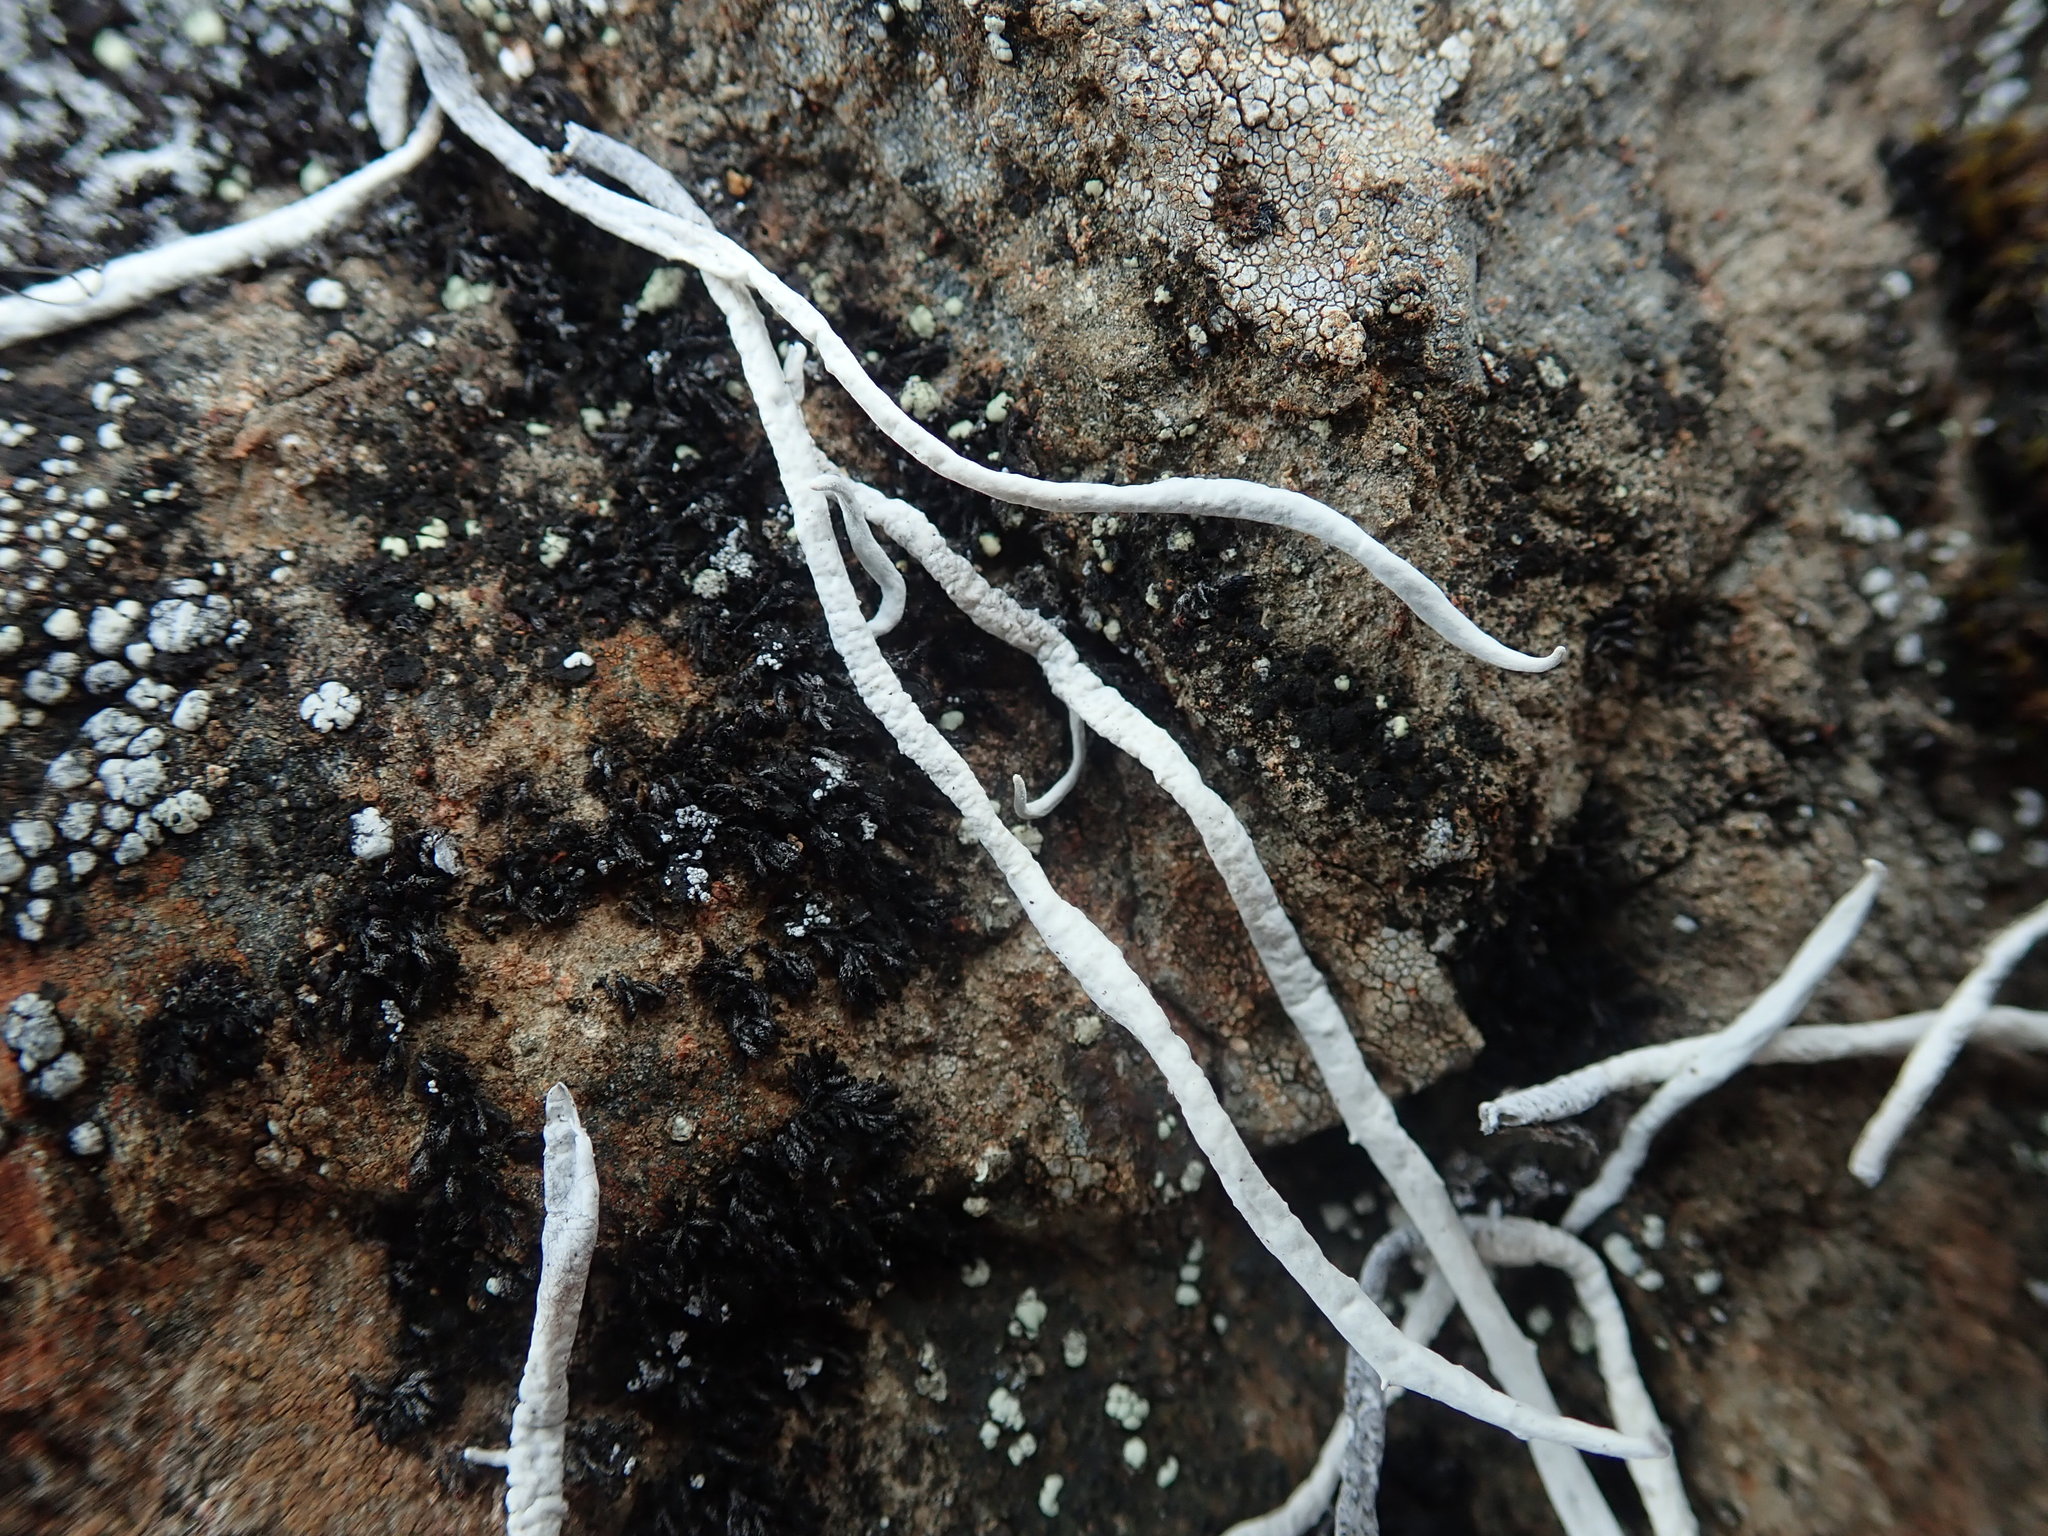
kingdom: Fungi
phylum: Ascomycota
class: Lecanoromycetes
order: Pertusariales
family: Icmadophilaceae
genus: Thamnolia
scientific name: Thamnolia vermicularis
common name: Whiteworm lichen
